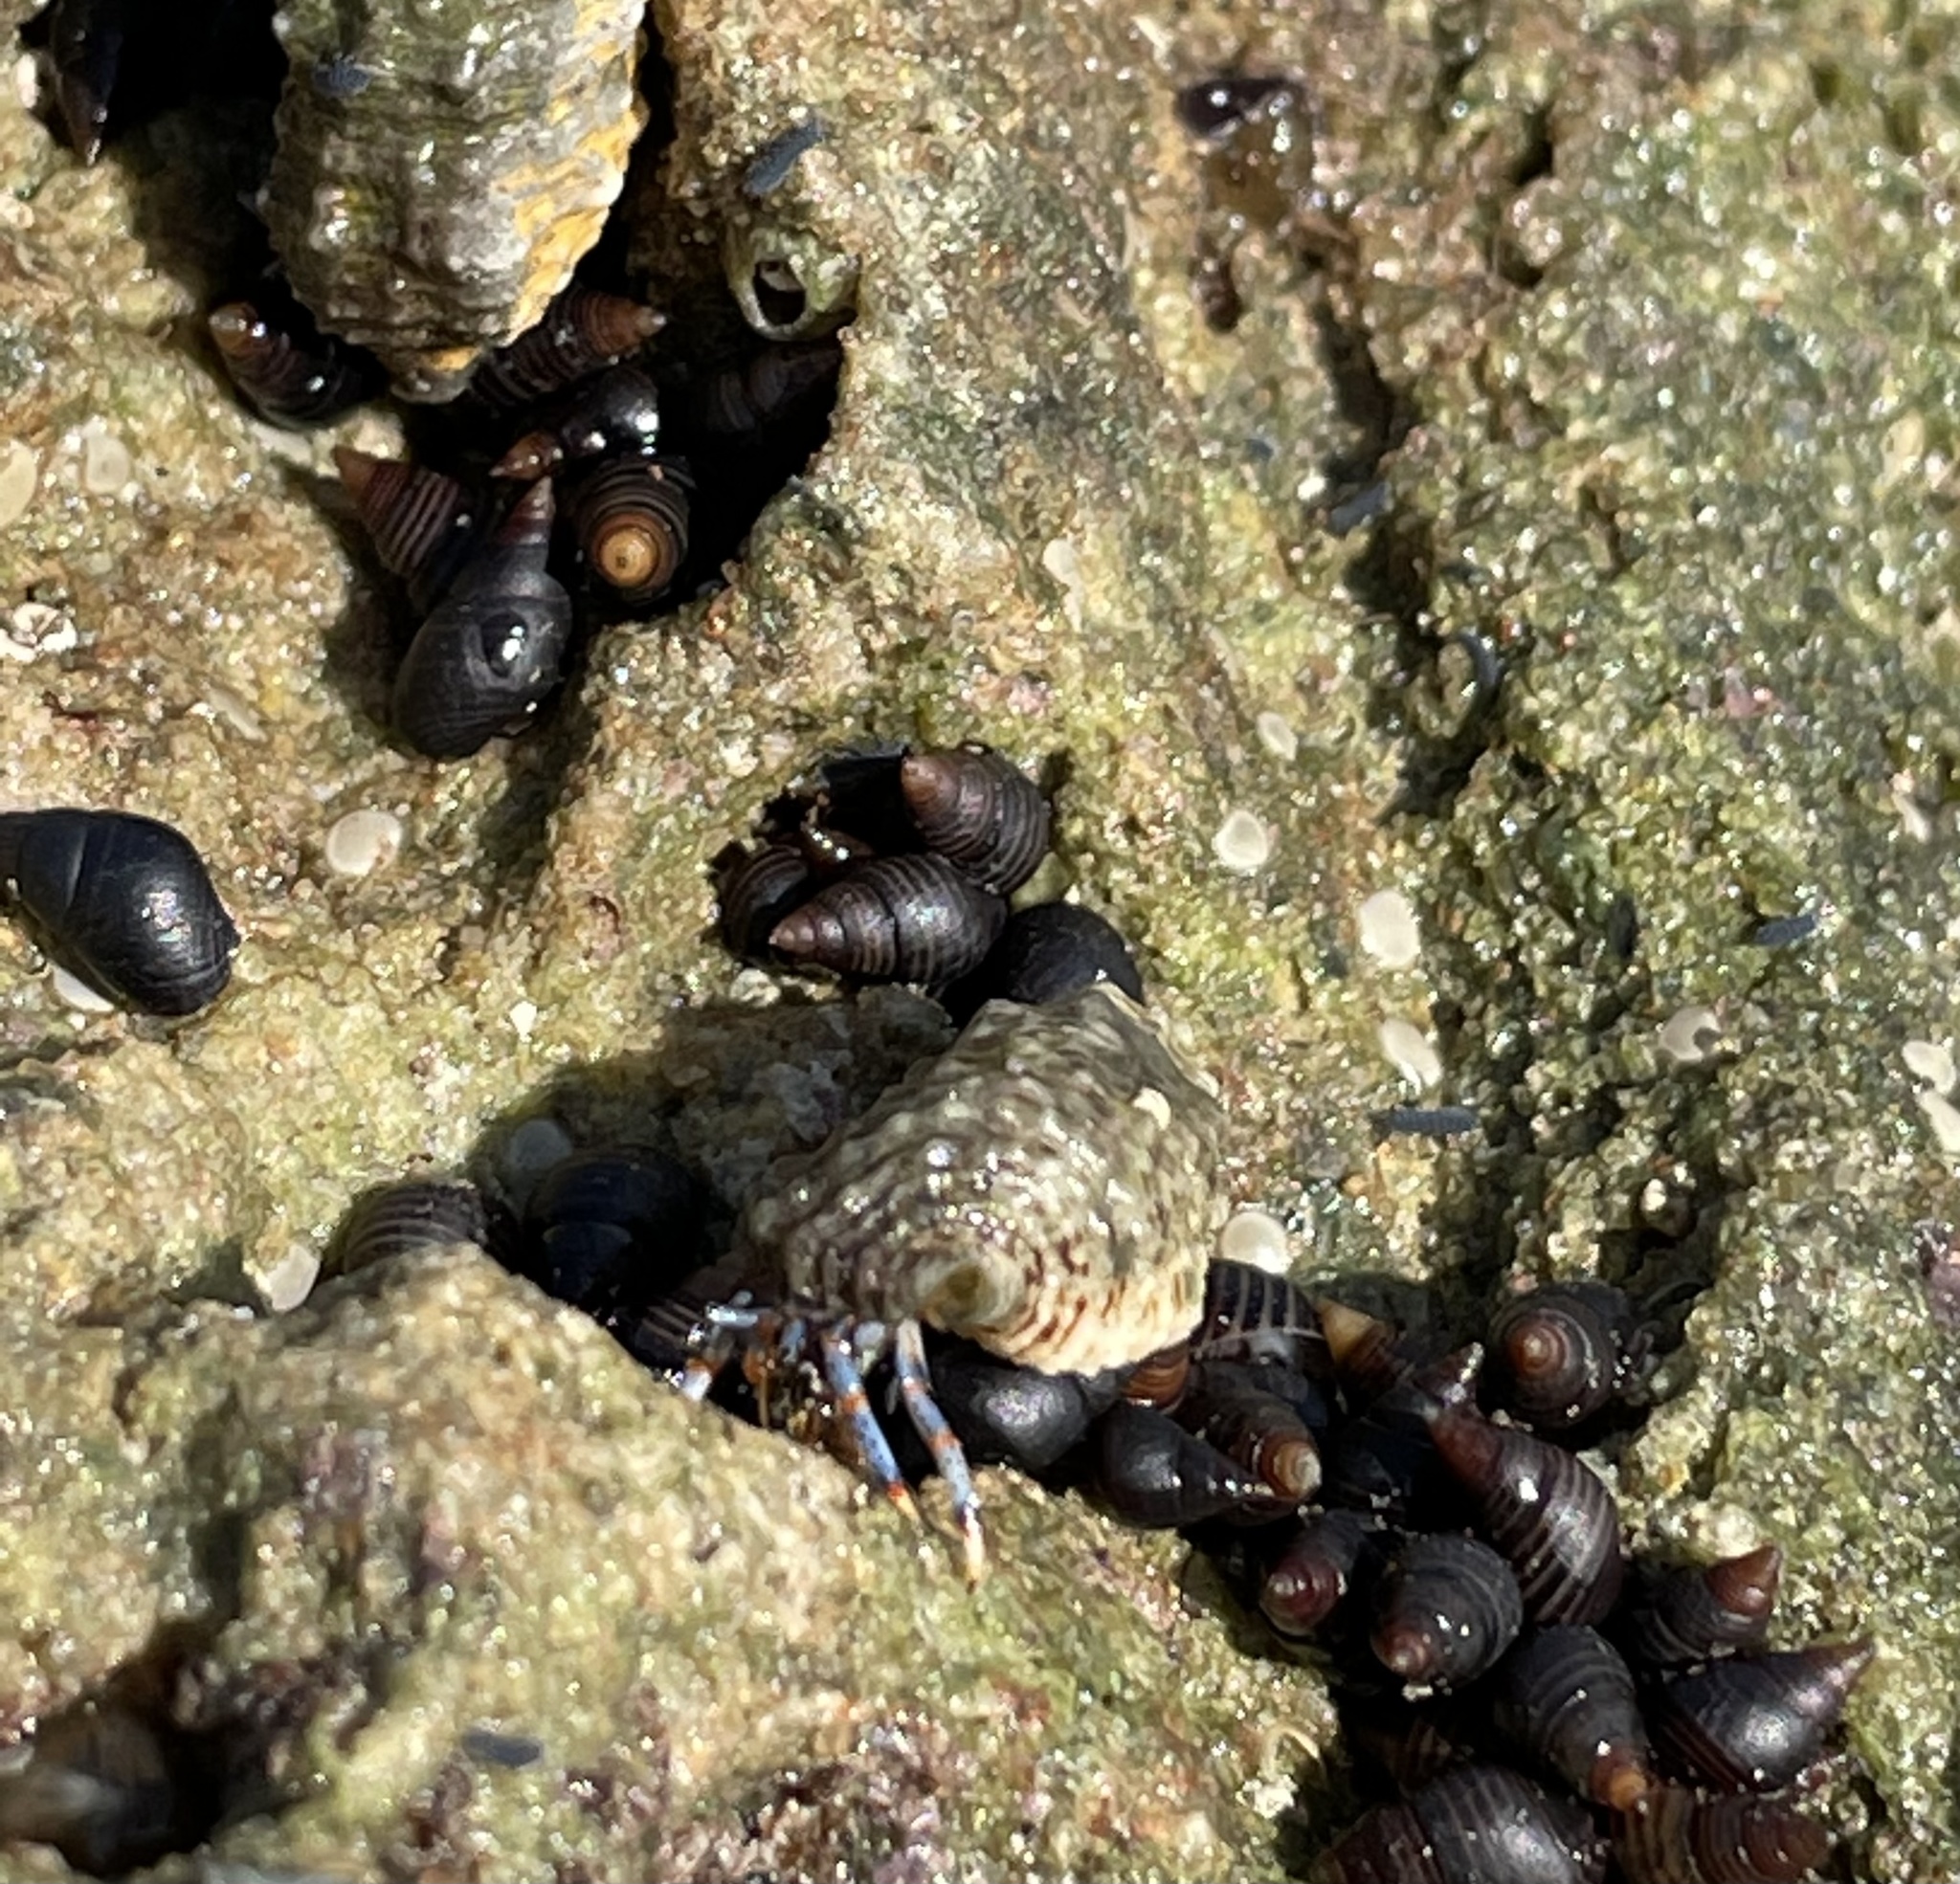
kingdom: Animalia
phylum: Arthropoda
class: Malacostraca
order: Decapoda
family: Diogenidae
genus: Clibanarius
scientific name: Clibanarius tricolor
